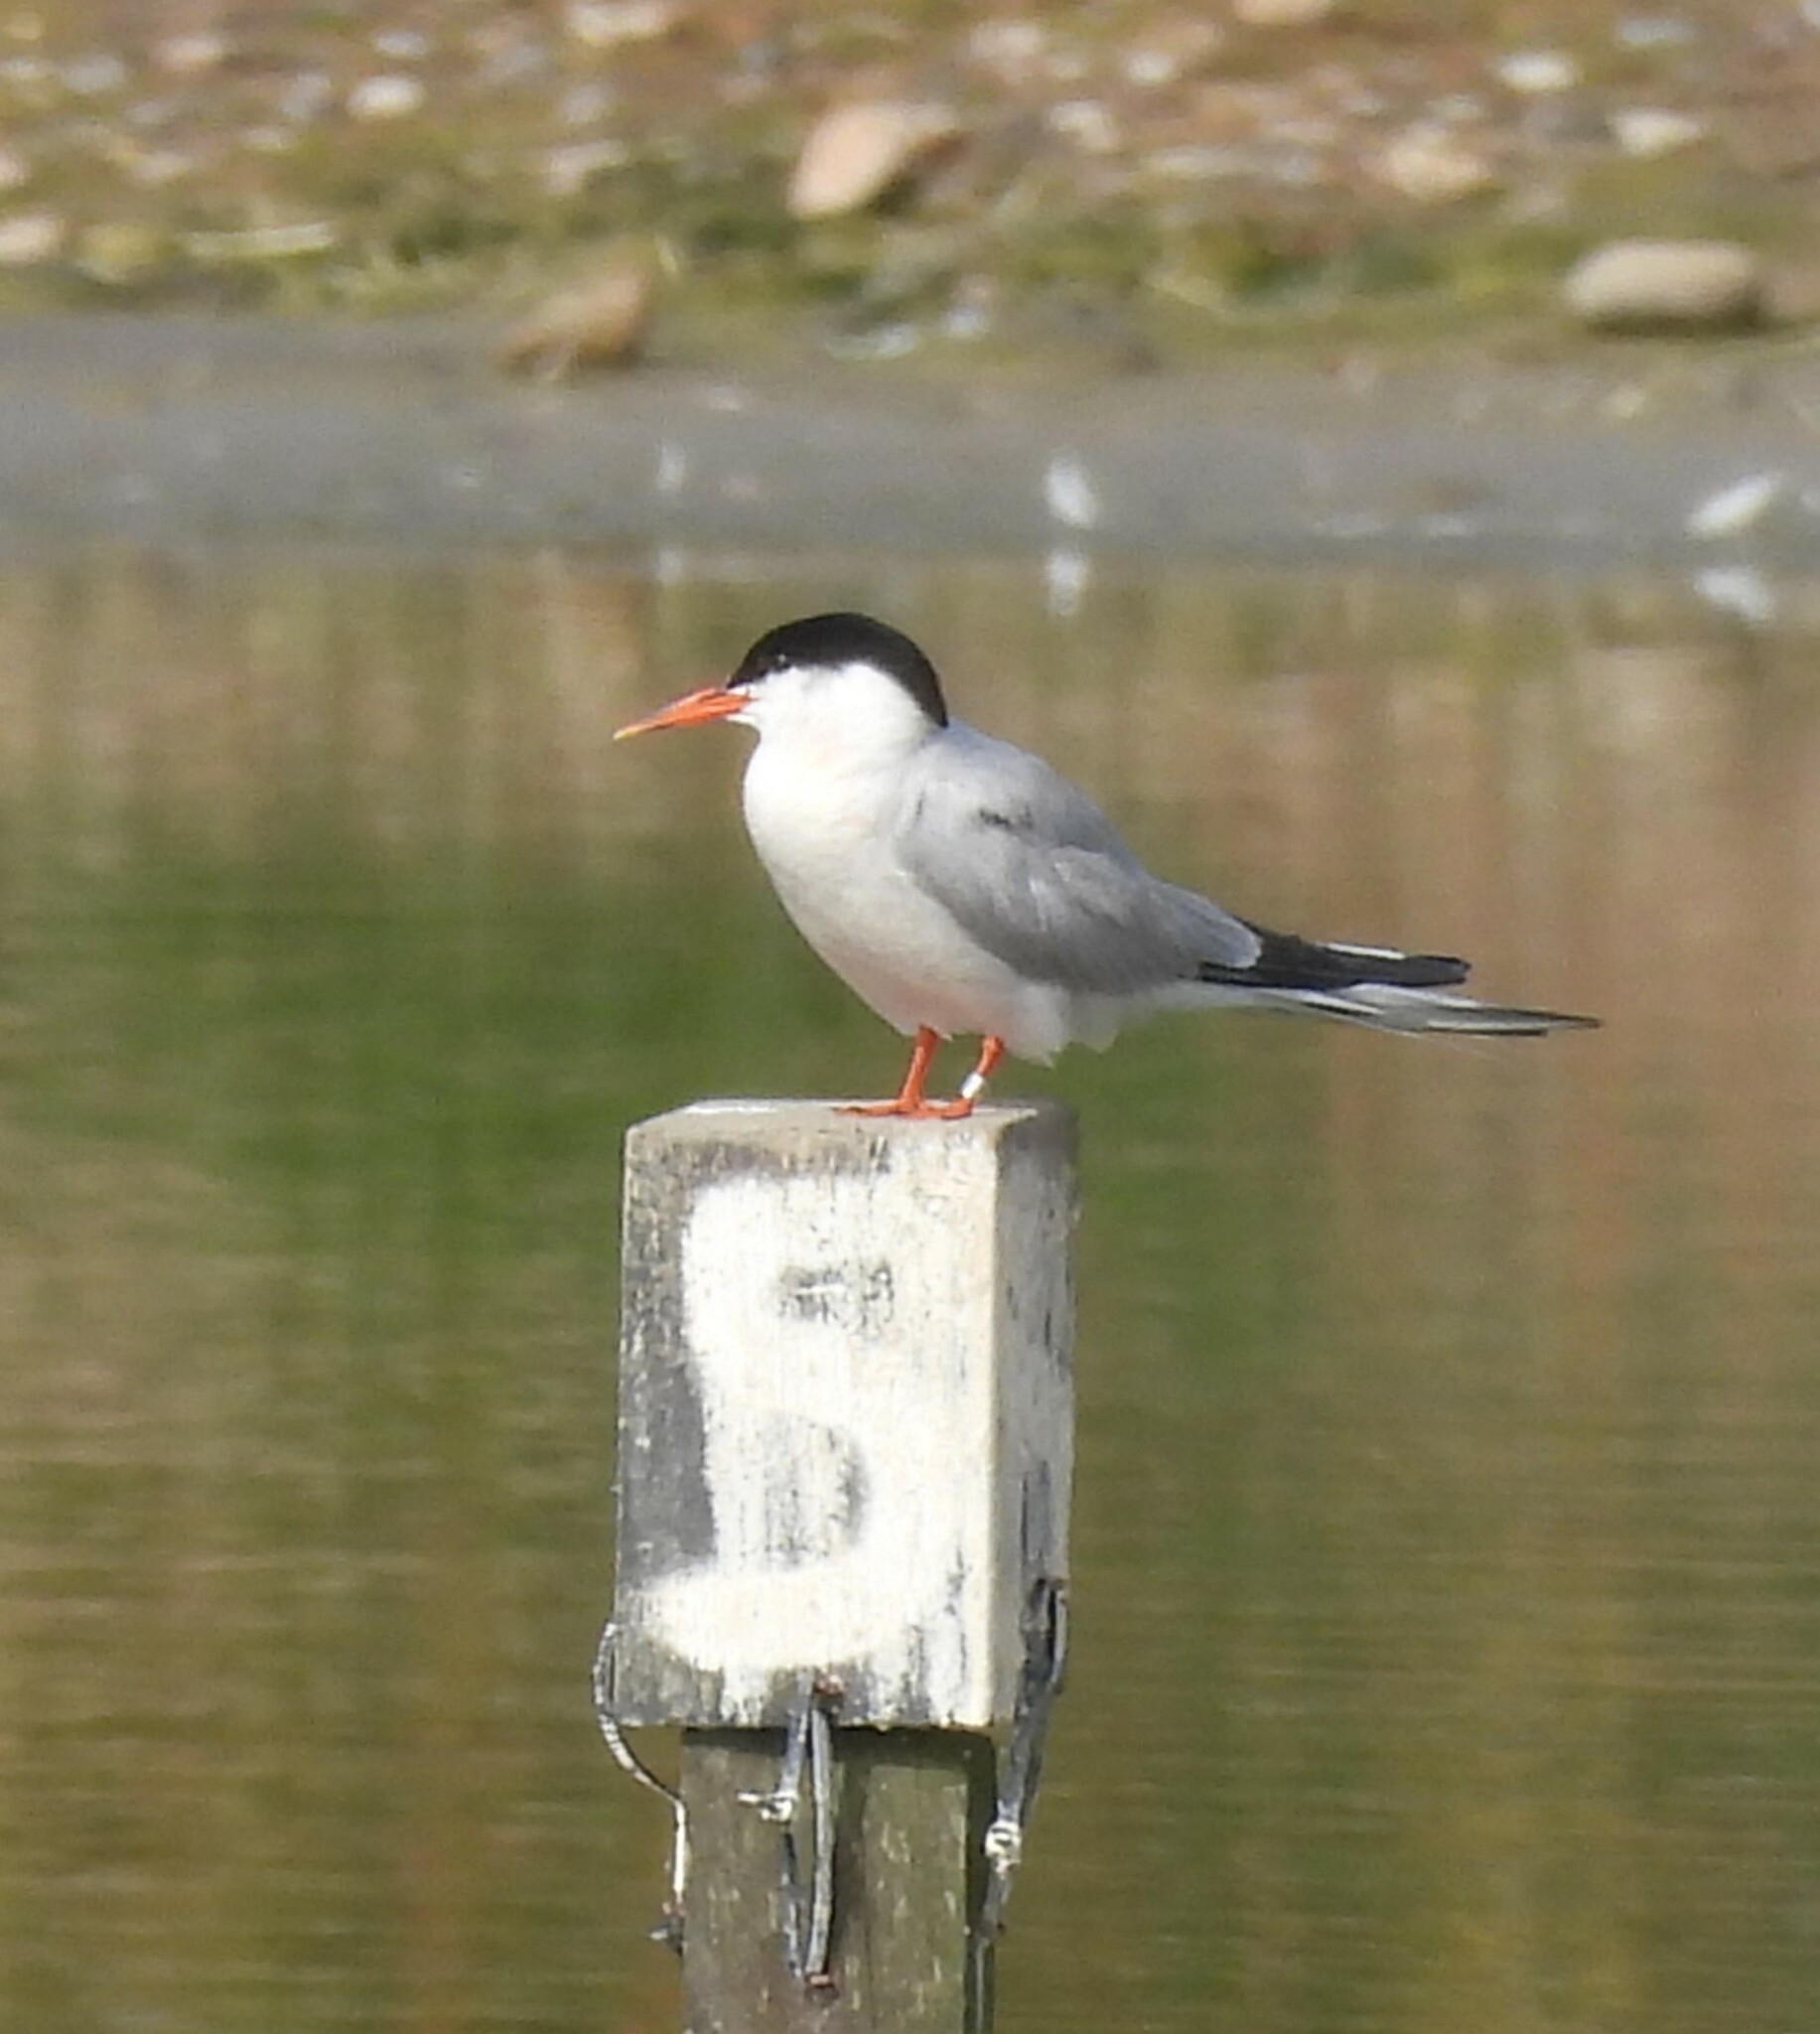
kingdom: Animalia
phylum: Chordata
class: Aves
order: Charadriiformes
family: Laridae
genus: Sterna
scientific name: Sterna hirundo
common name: Common tern
